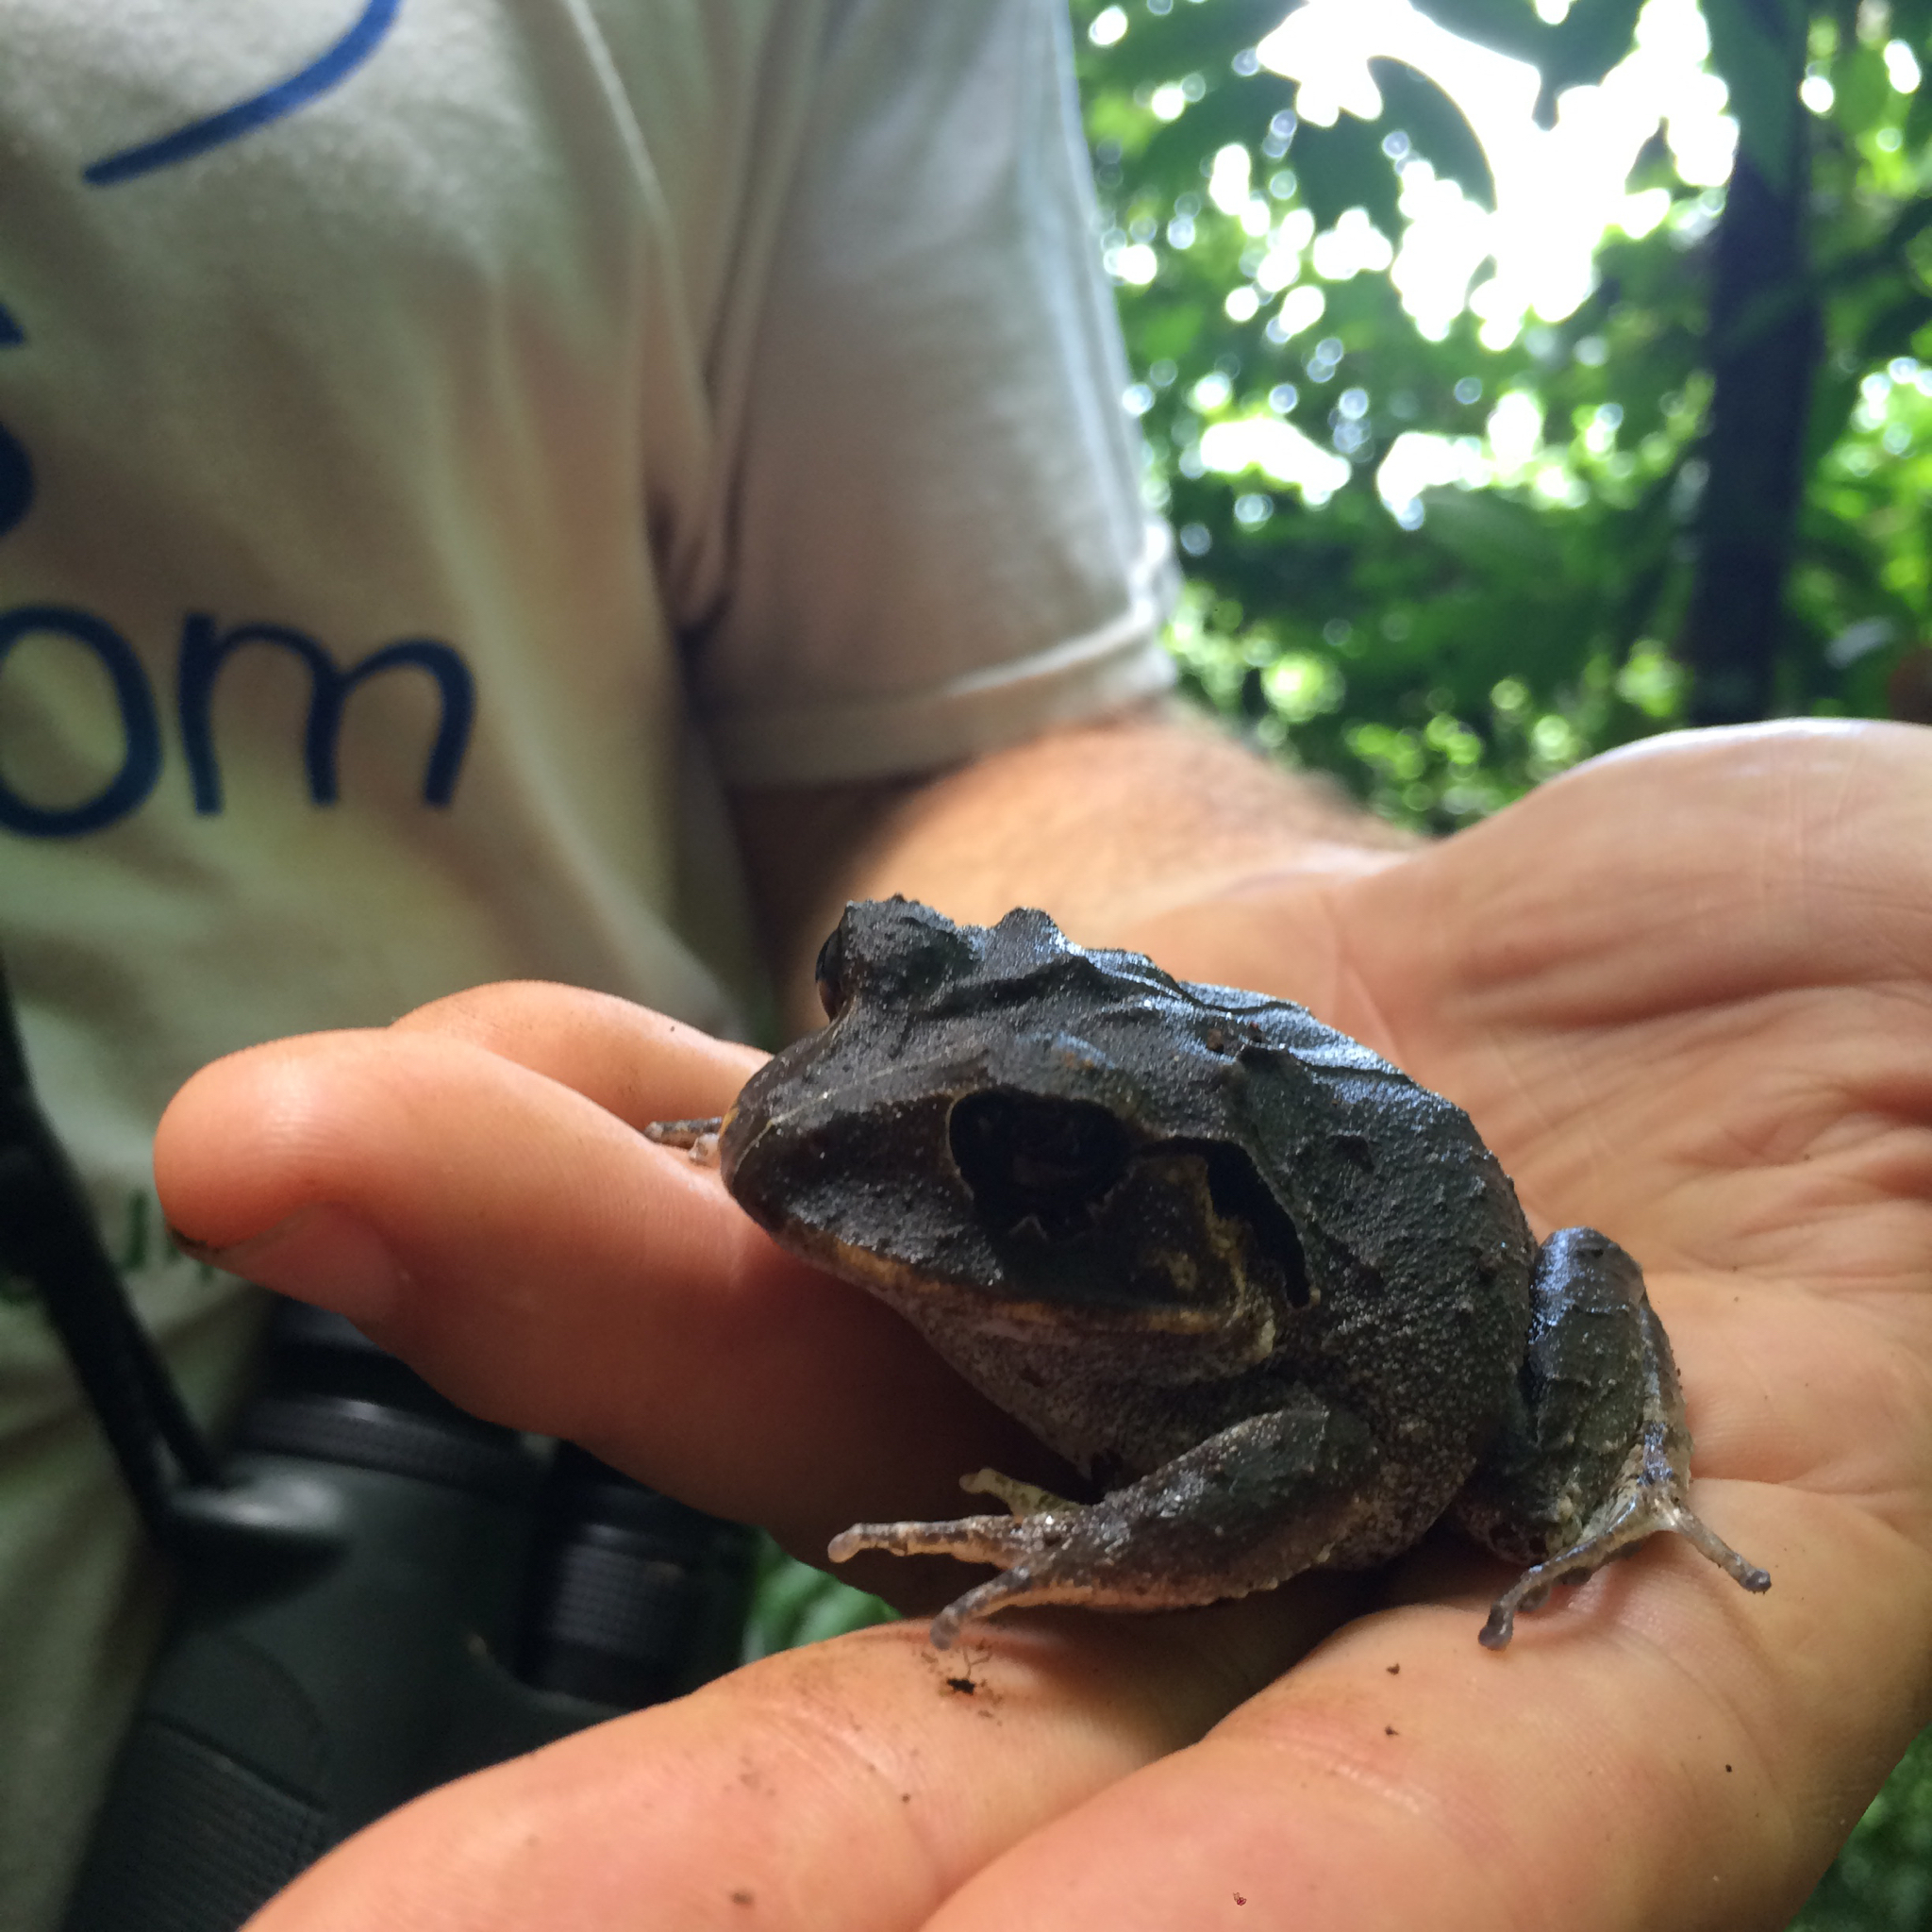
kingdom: Animalia
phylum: Chordata
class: Amphibia
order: Anura
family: Craugastoridae
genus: Craugastor
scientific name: Craugastor megacephalus
